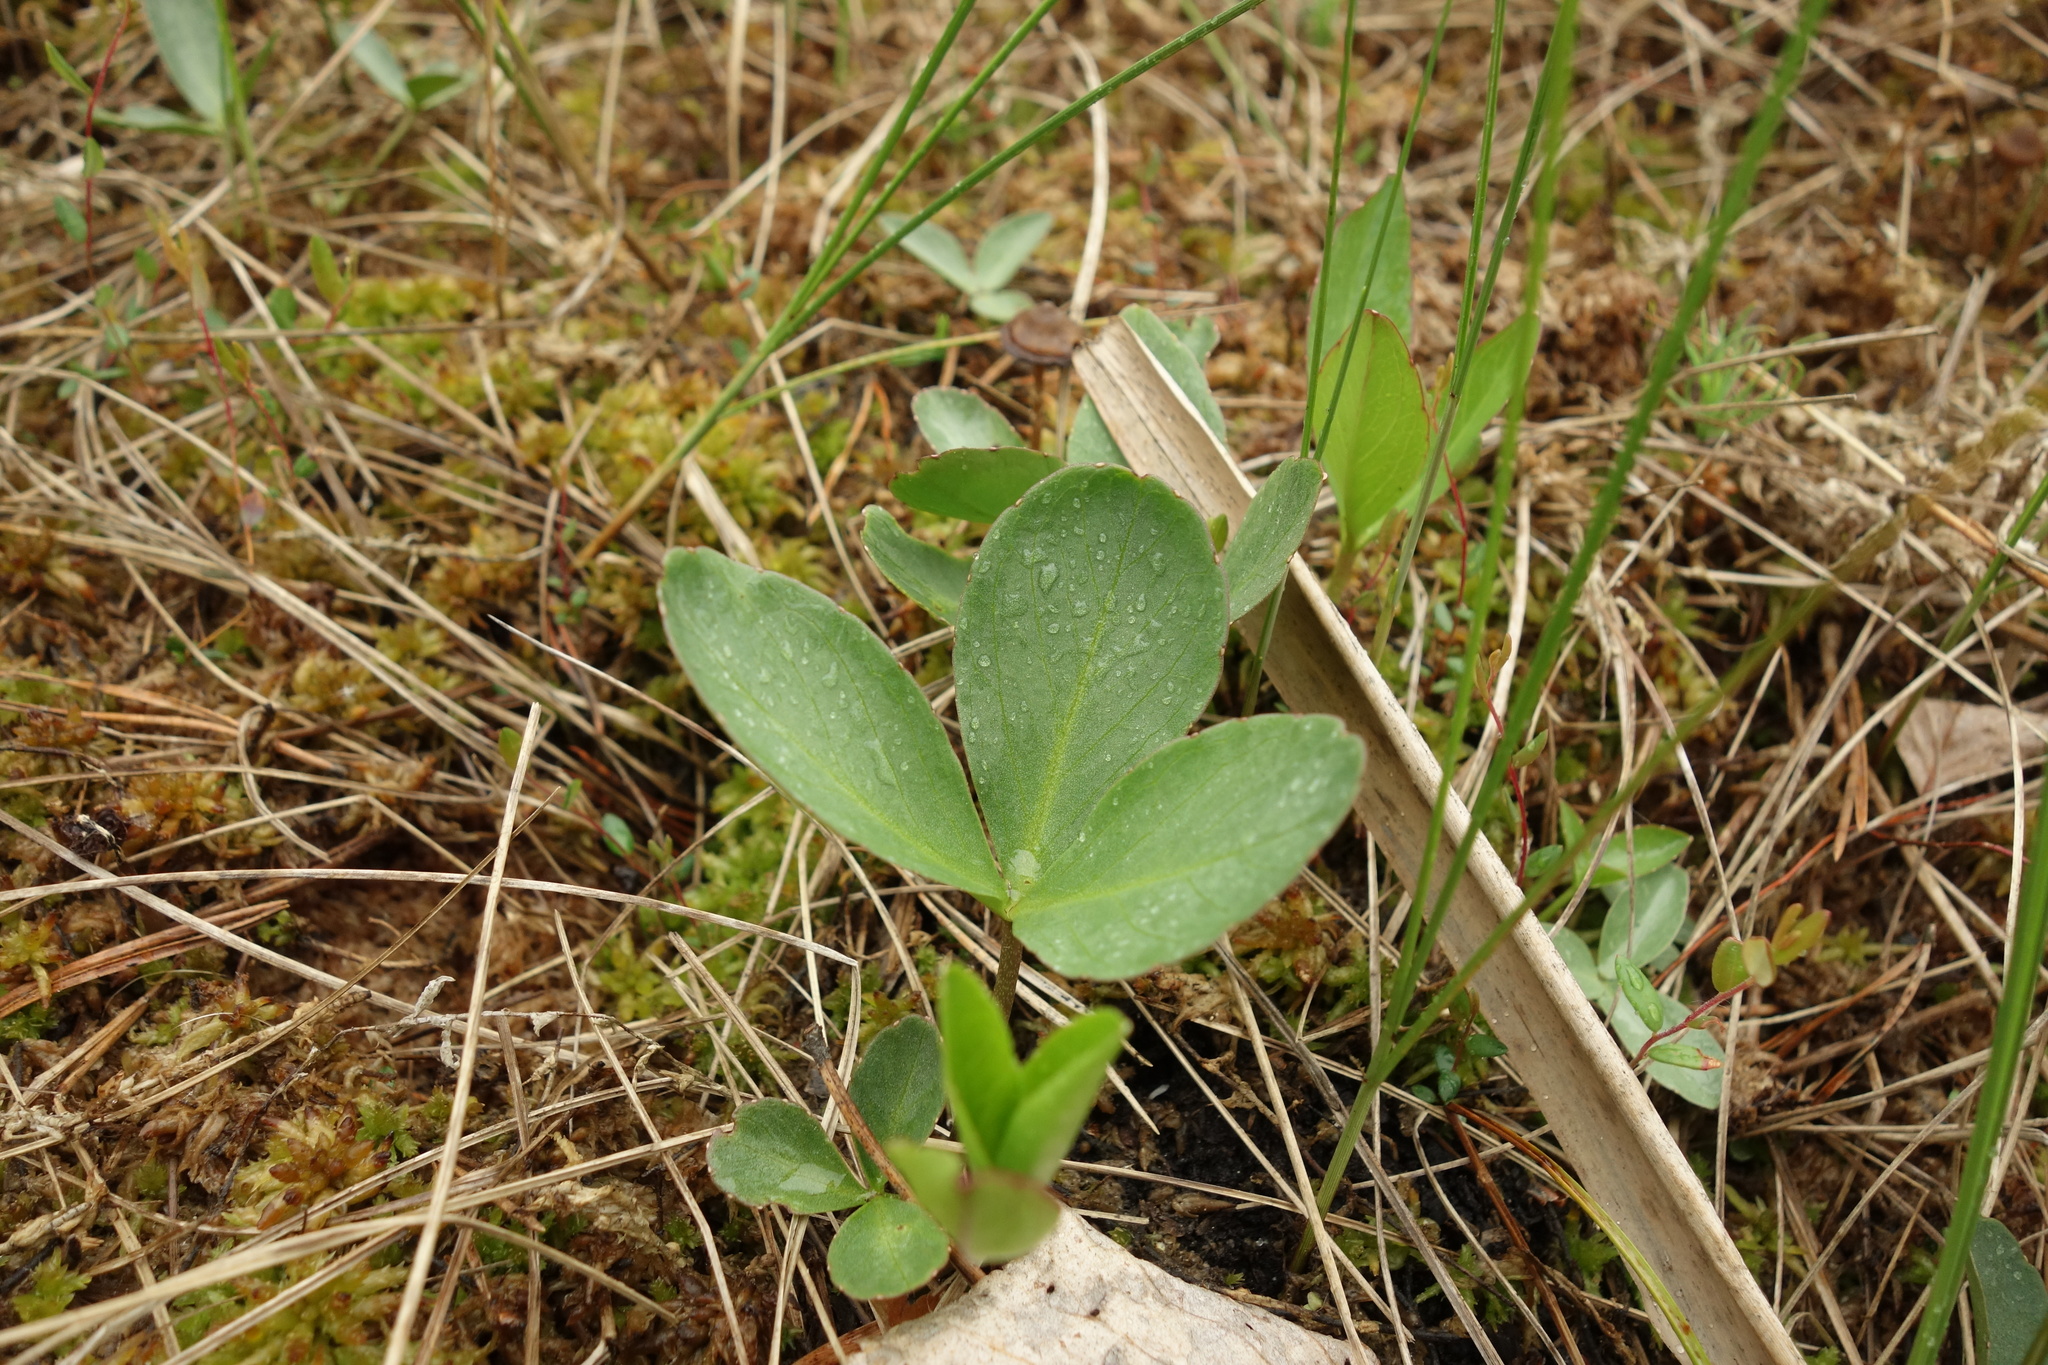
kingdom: Plantae
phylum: Tracheophyta
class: Magnoliopsida
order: Asterales
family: Menyanthaceae
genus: Menyanthes
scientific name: Menyanthes trifoliata
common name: Bogbean
